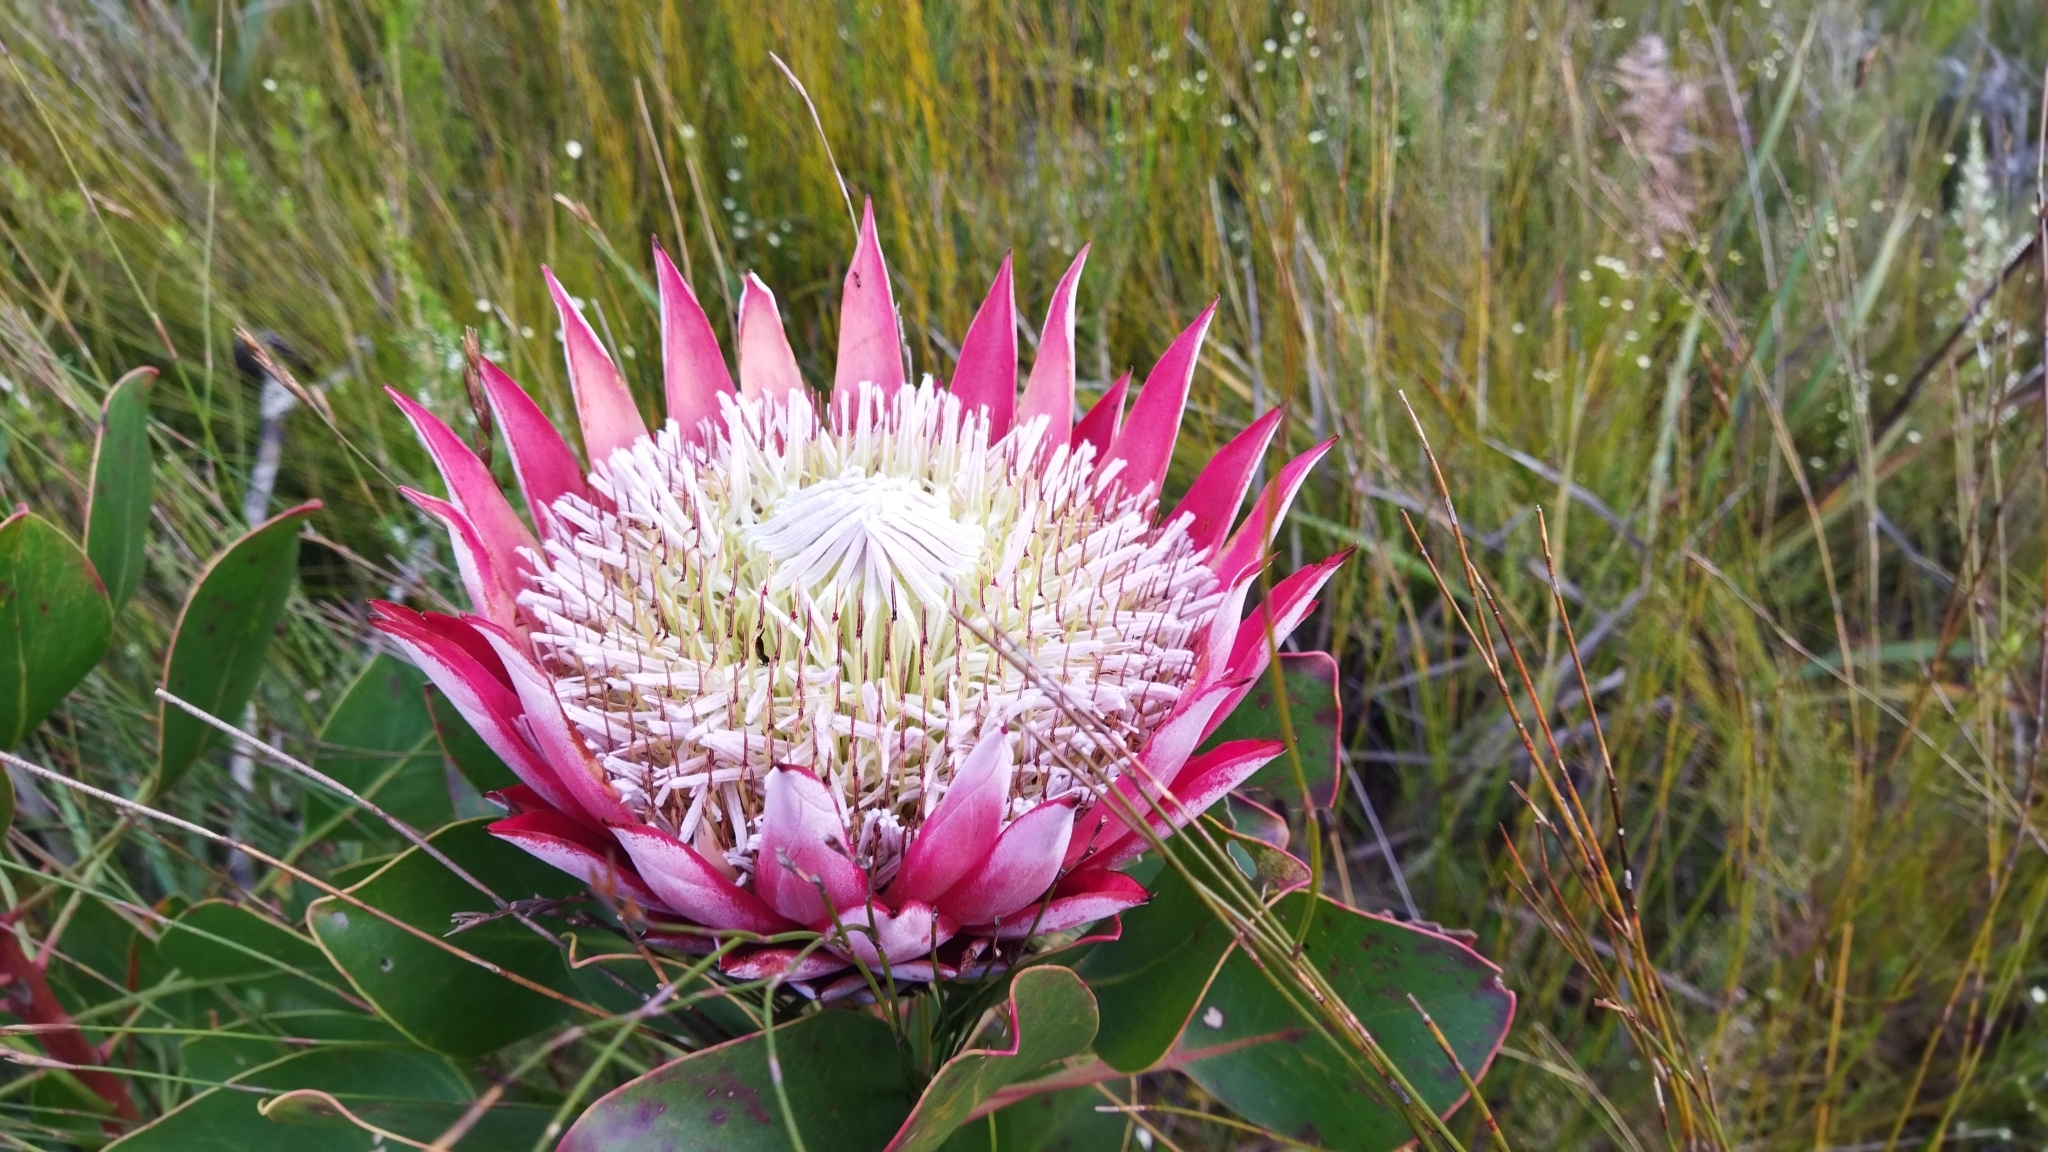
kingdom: Plantae
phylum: Tracheophyta
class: Magnoliopsida
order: Proteales
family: Proteaceae
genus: Protea
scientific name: Protea cynaroides
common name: King protea
